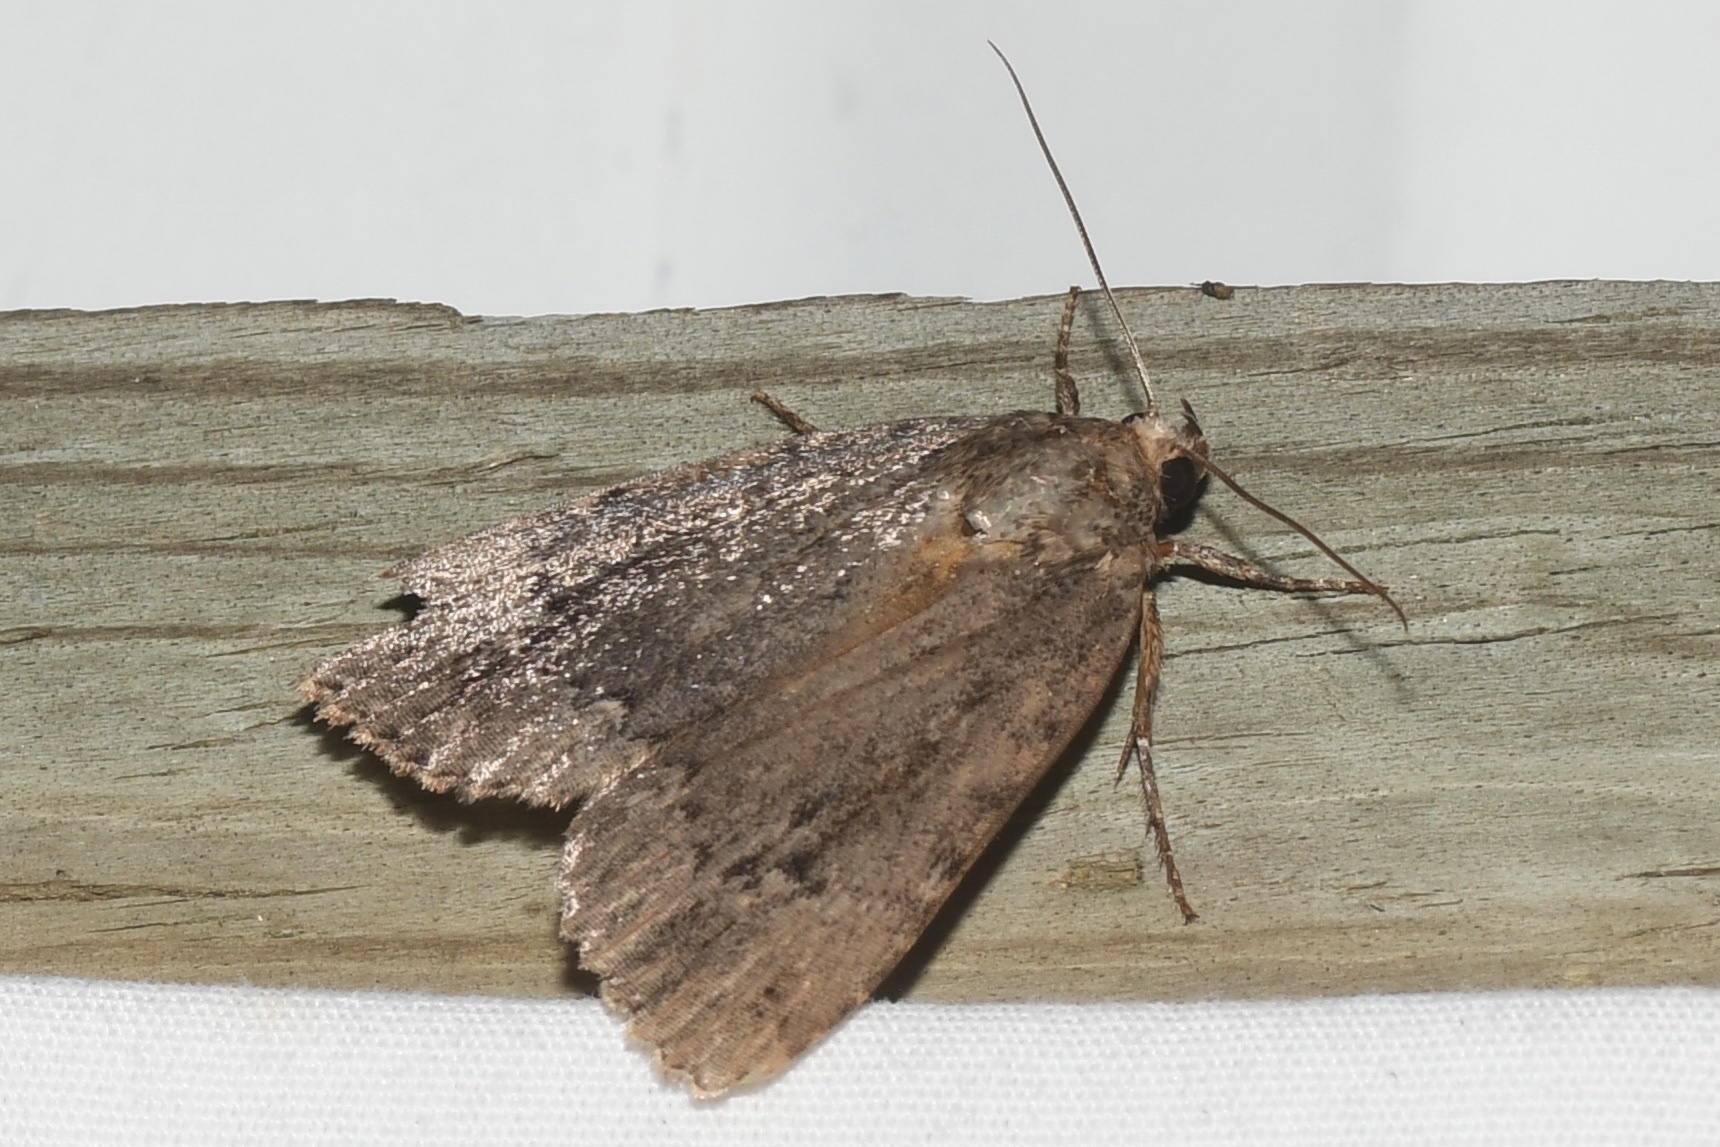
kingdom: Animalia
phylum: Arthropoda
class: Insecta
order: Lepidoptera
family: Noctuidae
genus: Amphipyra
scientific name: Amphipyra pyramidoides
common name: American copper underwing
